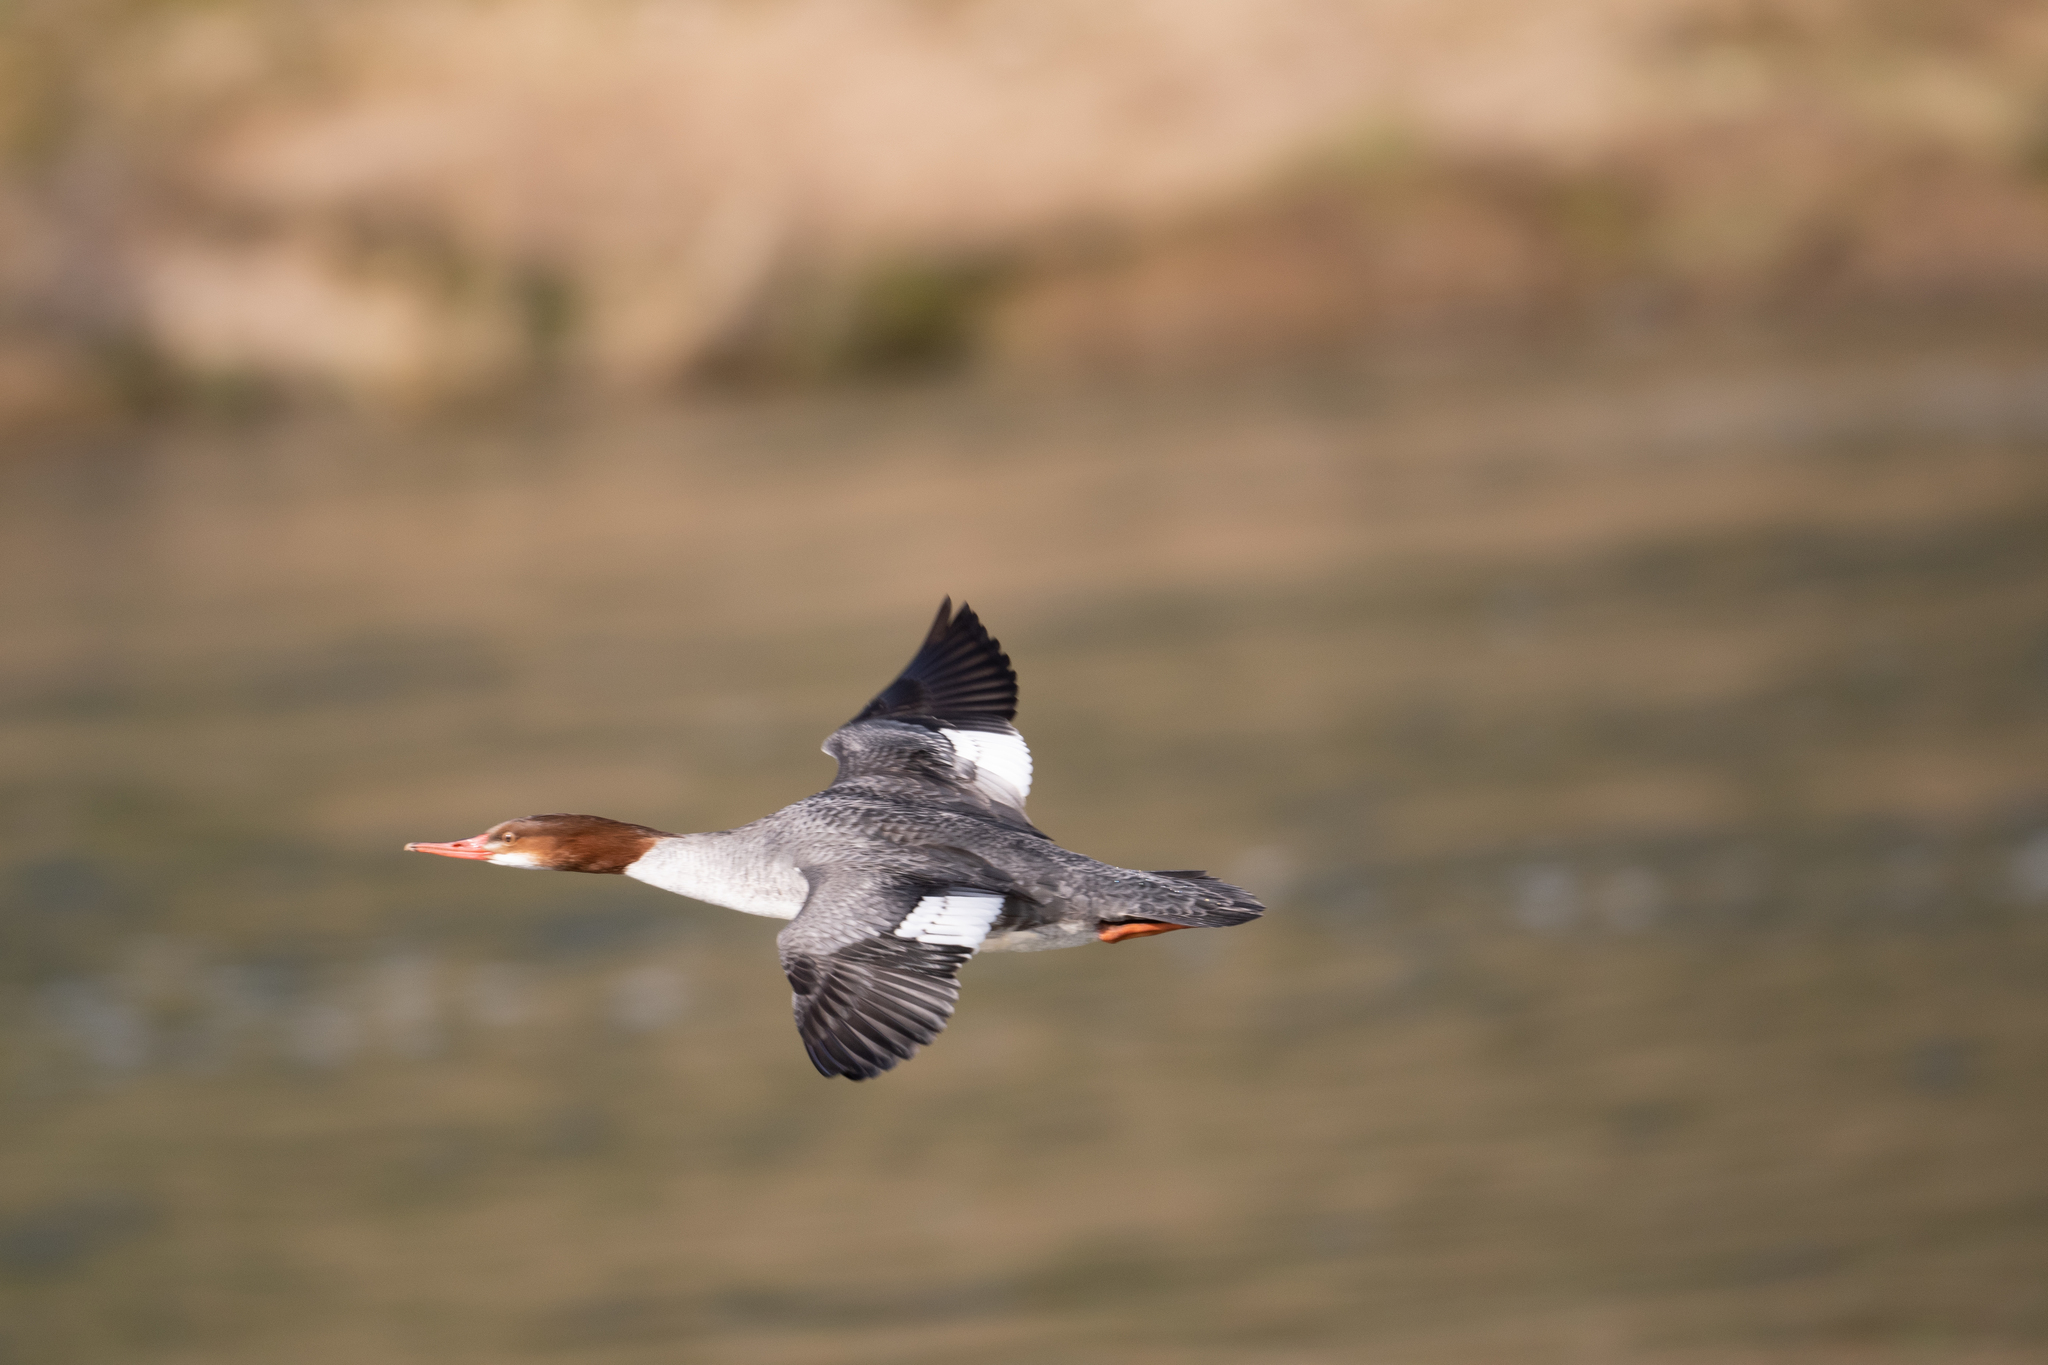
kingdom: Animalia
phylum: Chordata
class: Aves
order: Anseriformes
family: Anatidae
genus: Mergus
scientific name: Mergus merganser
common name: Common merganser
